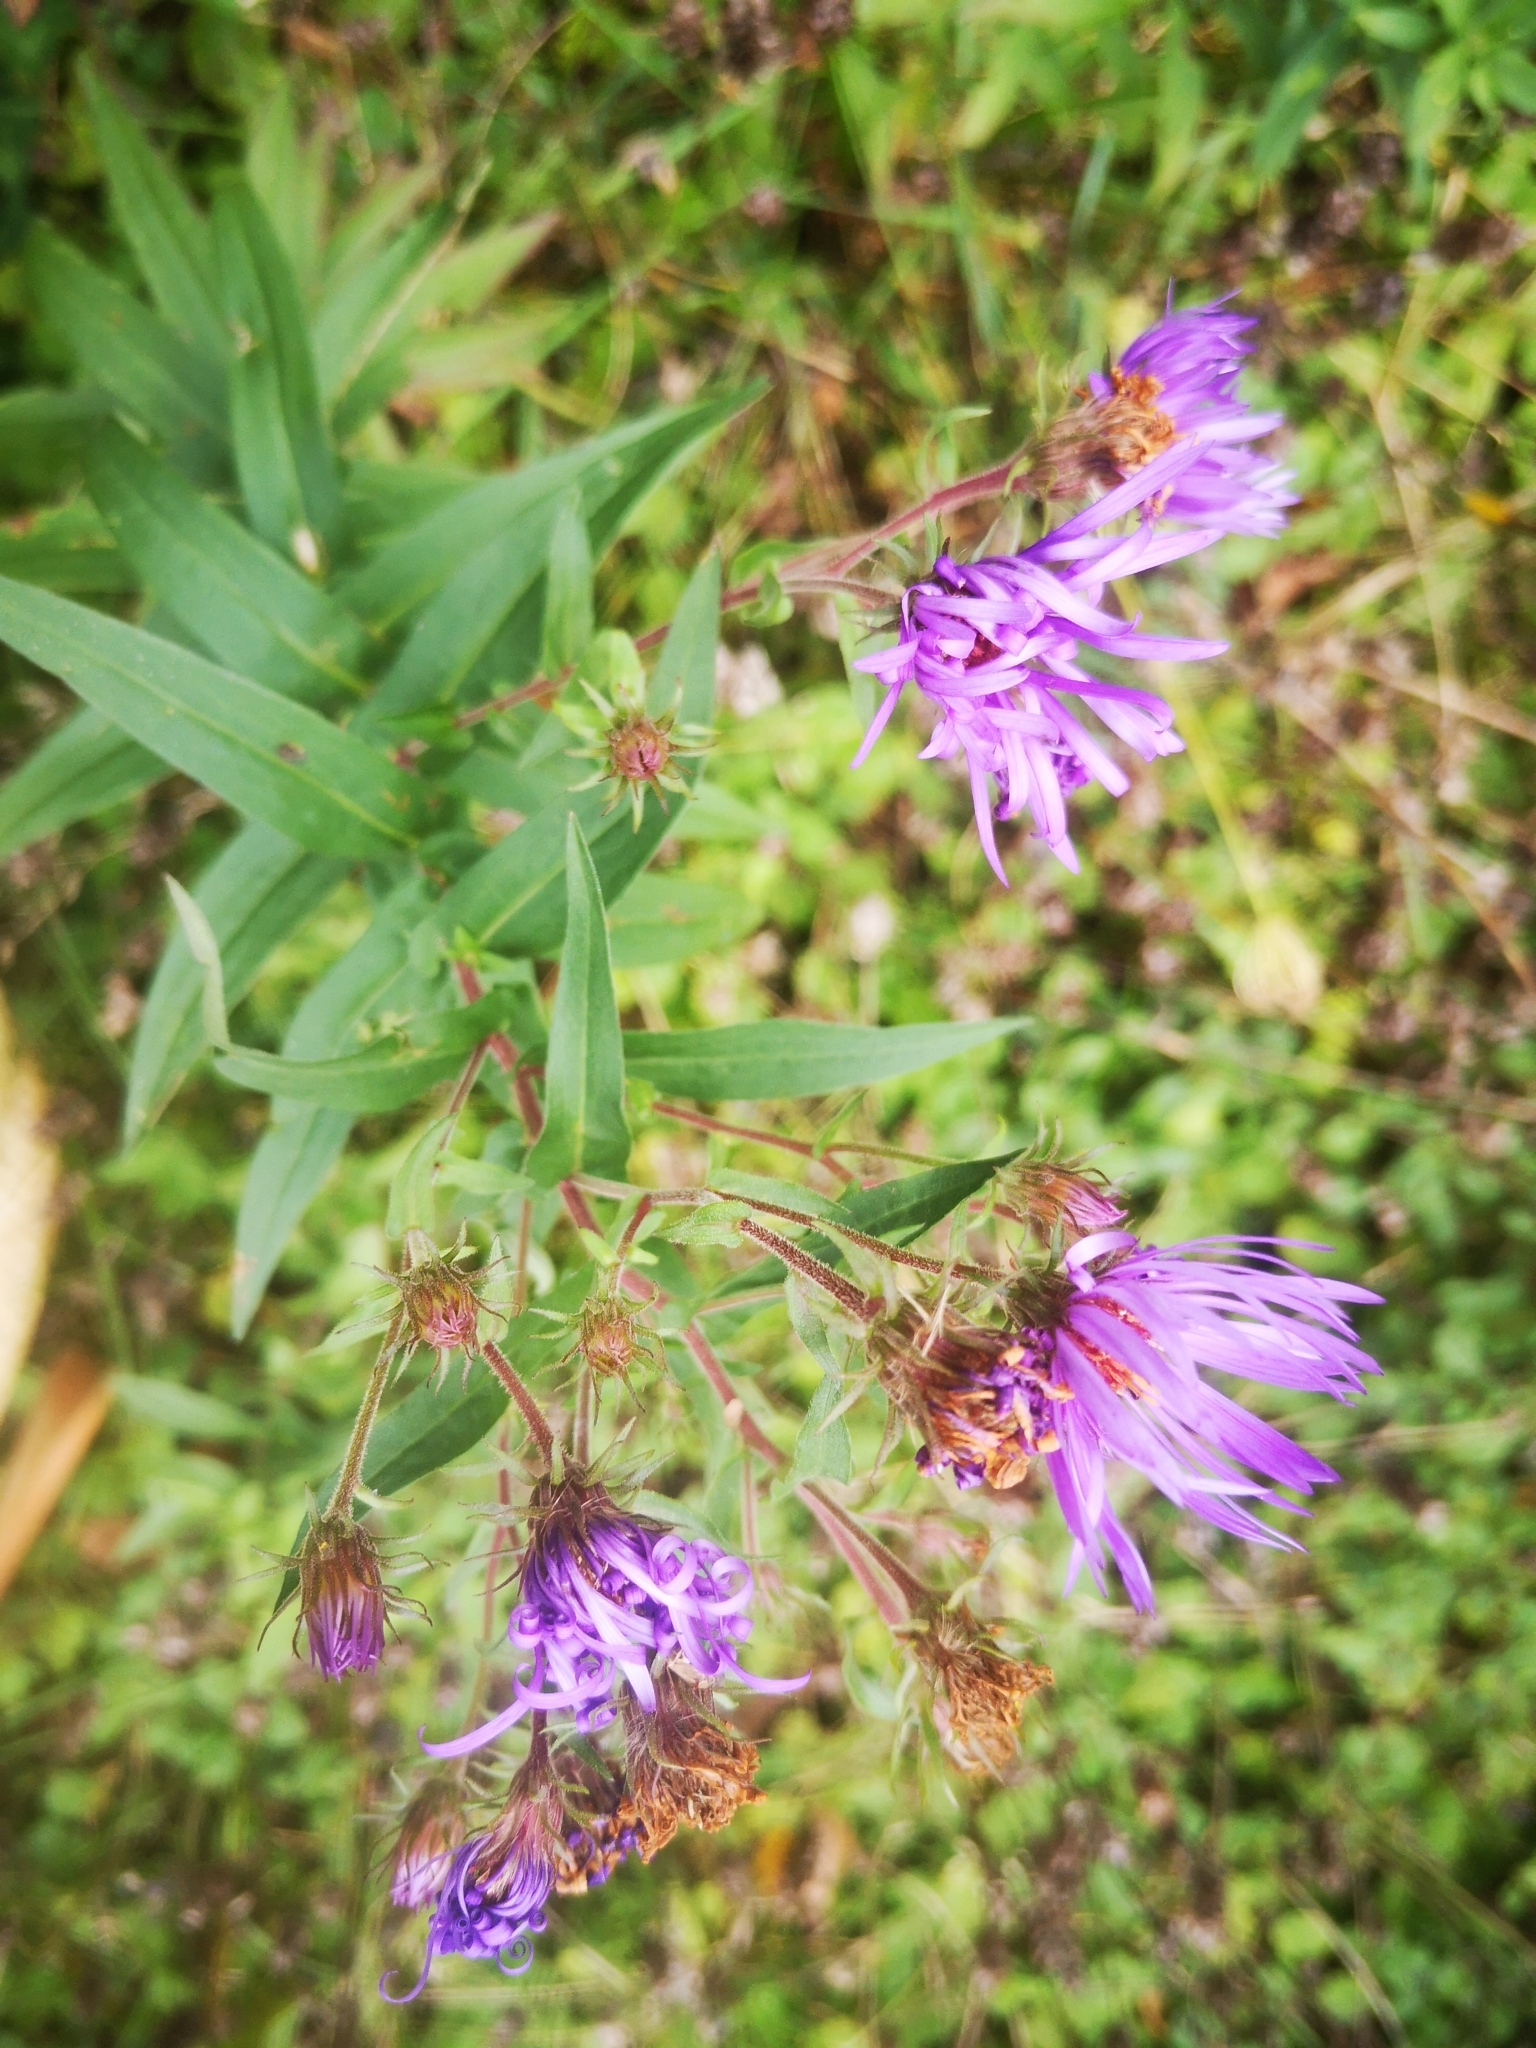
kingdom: Plantae
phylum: Tracheophyta
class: Magnoliopsida
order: Asterales
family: Asteraceae
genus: Symphyotrichum
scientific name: Symphyotrichum novae-angliae
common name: Michaelmas daisy
